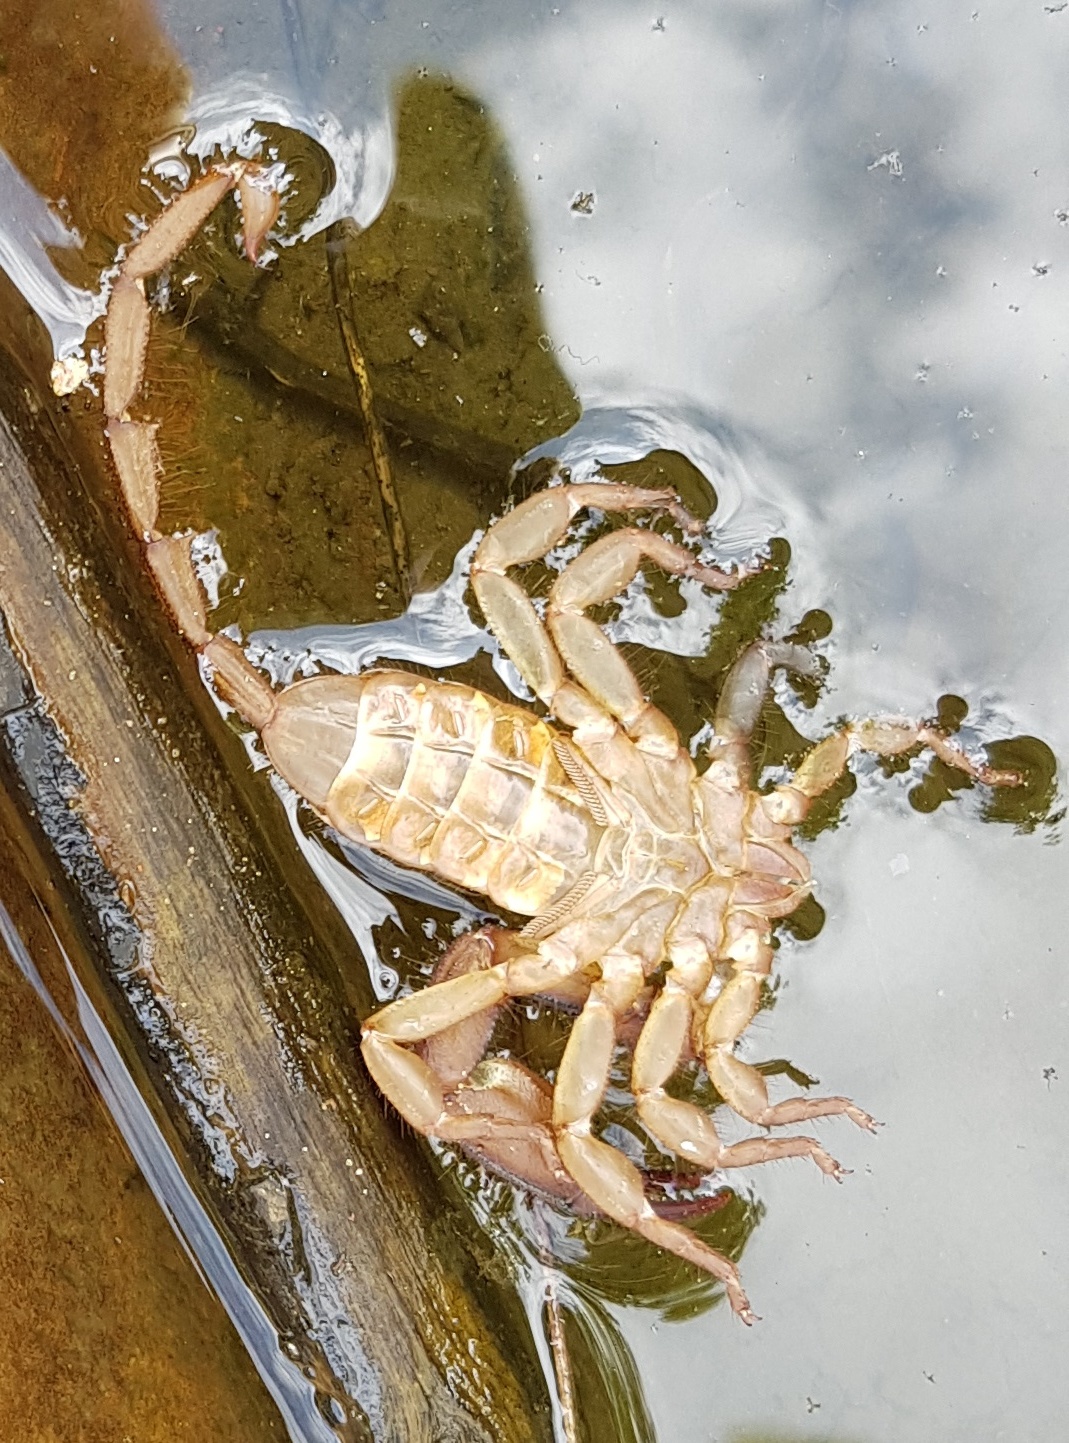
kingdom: Animalia
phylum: Arthropoda
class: Arachnida
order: Scorpiones
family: Hormuridae
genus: Hadogenes
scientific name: Hadogenes zuluanus
